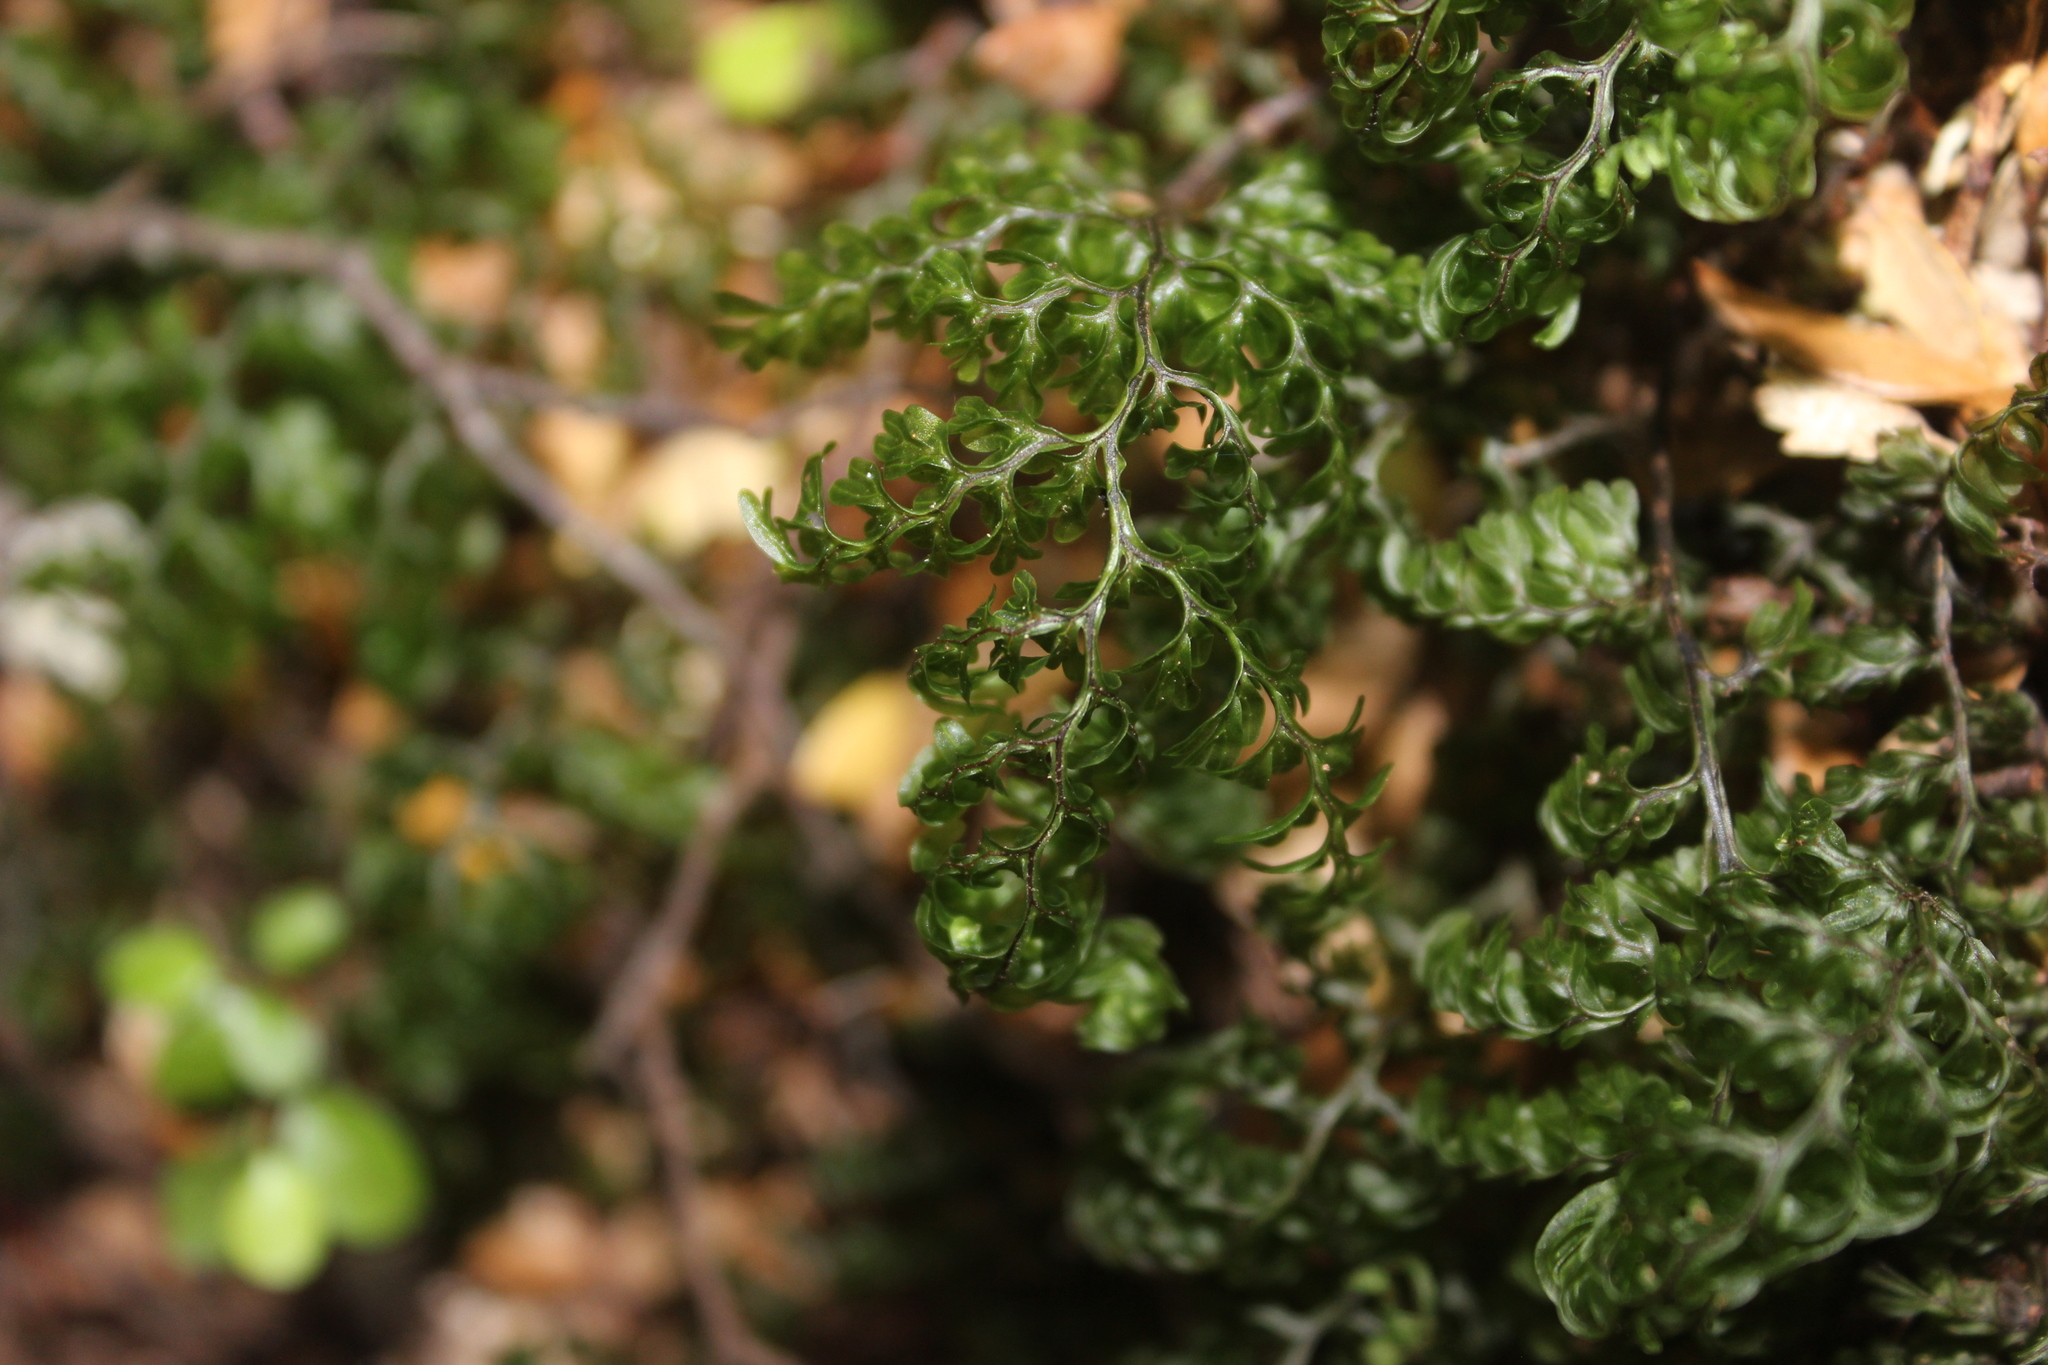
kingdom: Plantae
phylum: Tracheophyta
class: Polypodiopsida
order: Hymenophyllales
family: Hymenophyllaceae
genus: Hymenophyllum
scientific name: Hymenophyllum sanguinolentum
